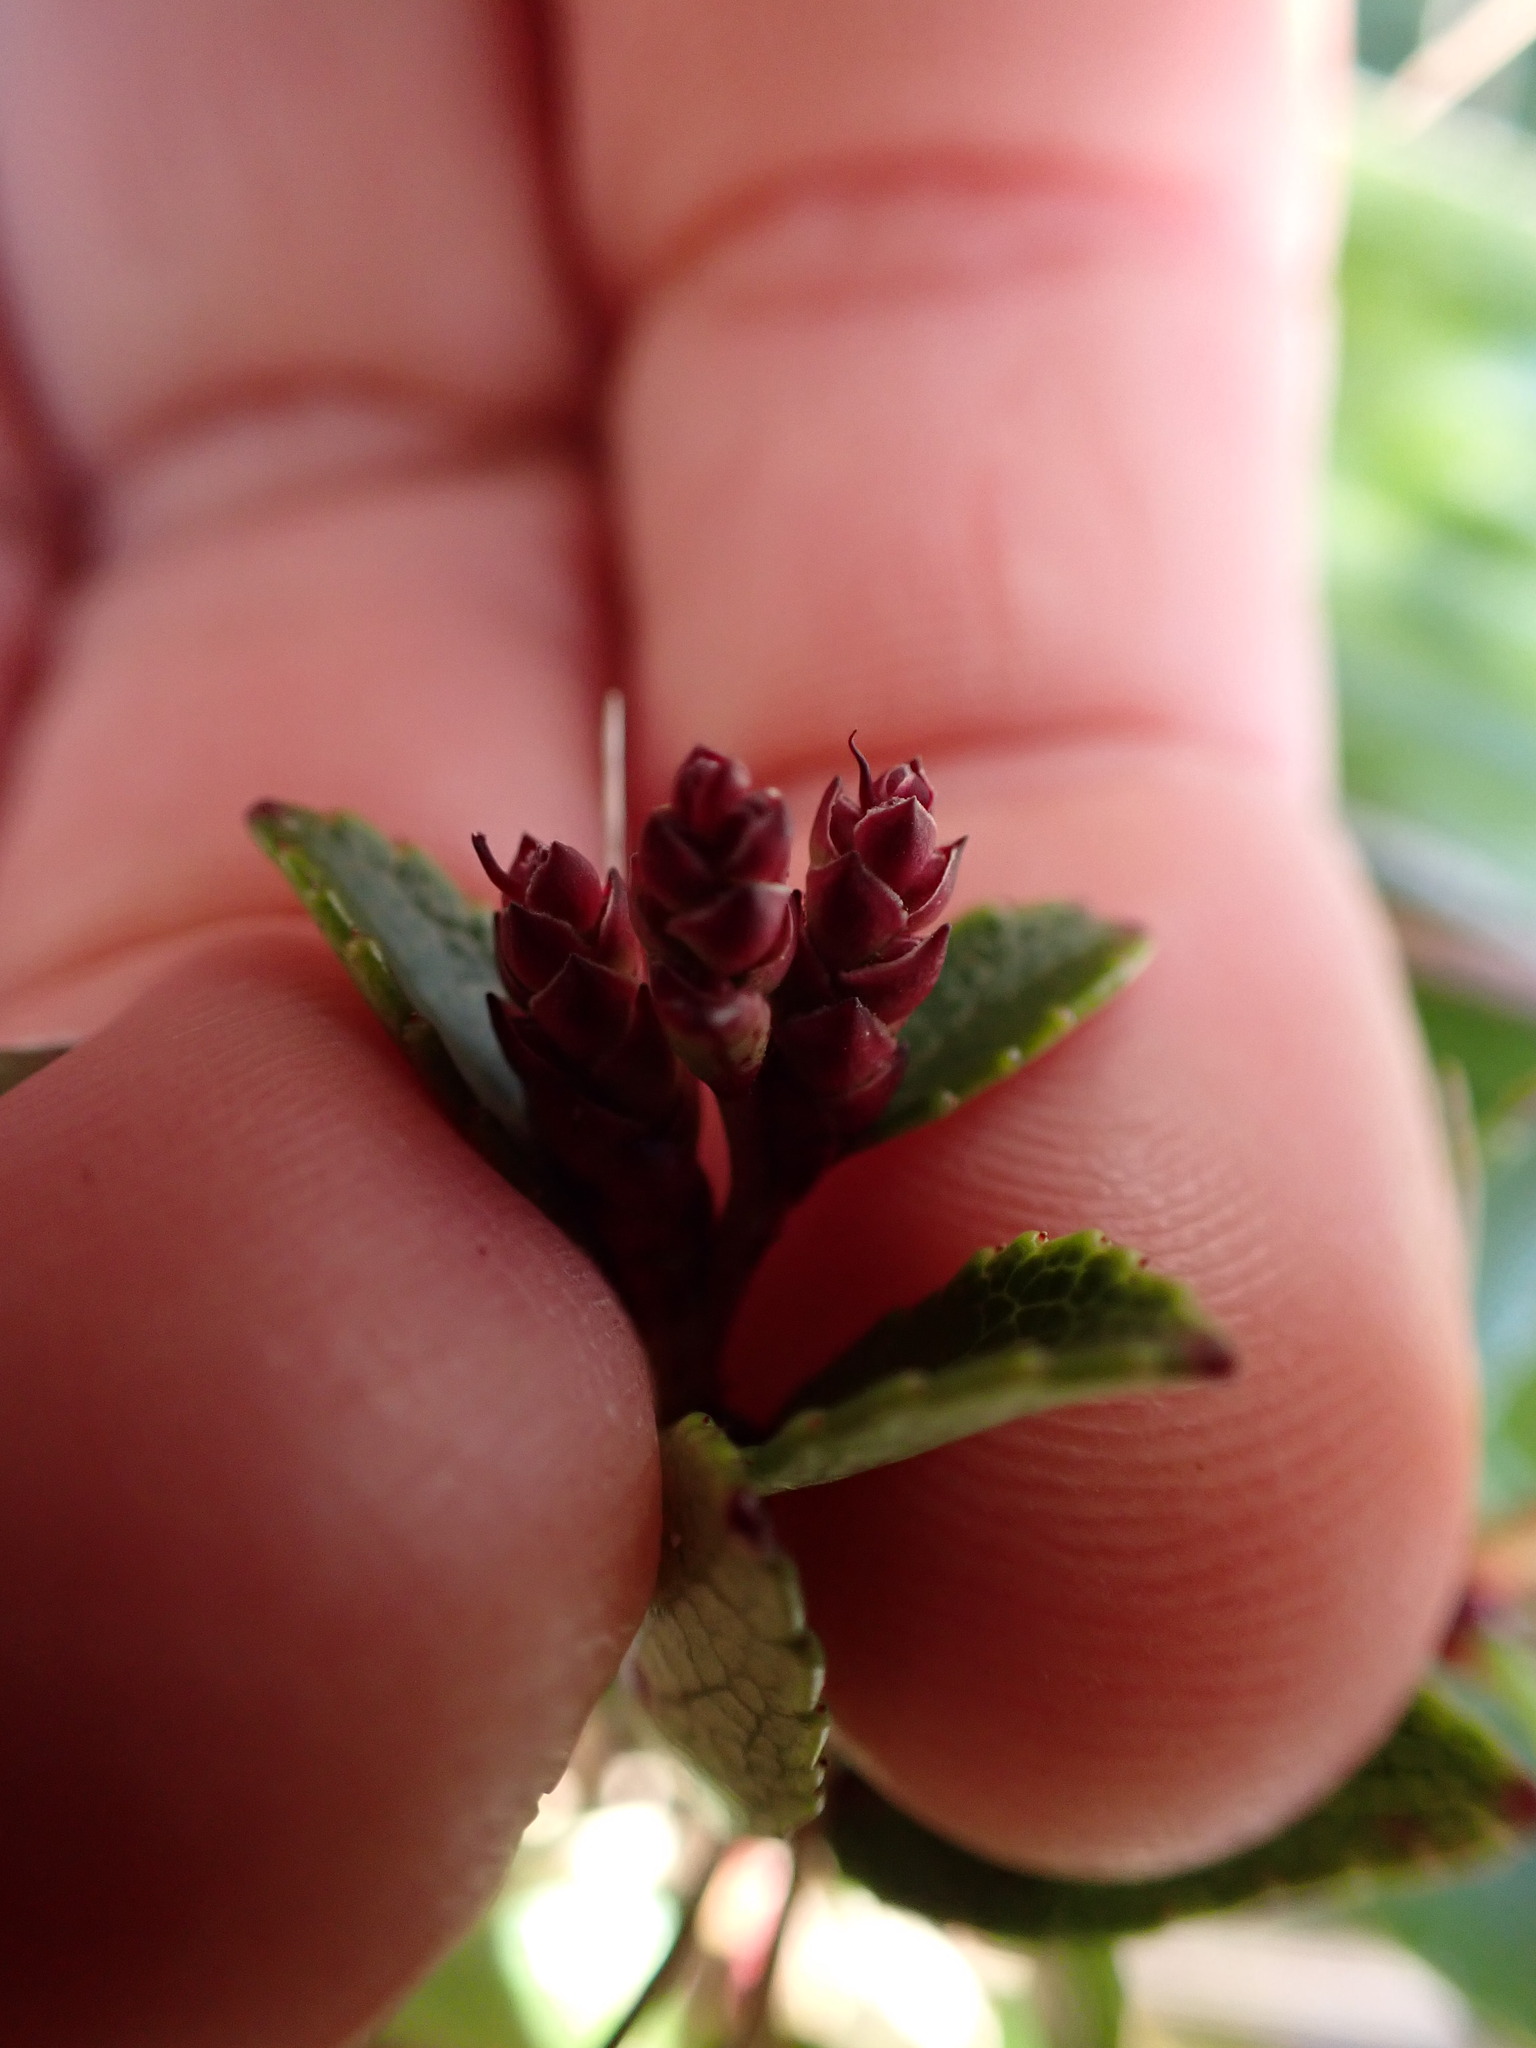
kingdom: Plantae
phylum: Tracheophyta
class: Magnoliopsida
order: Ericales
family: Ericaceae
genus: Gaultheria
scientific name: Gaultheria crassa
